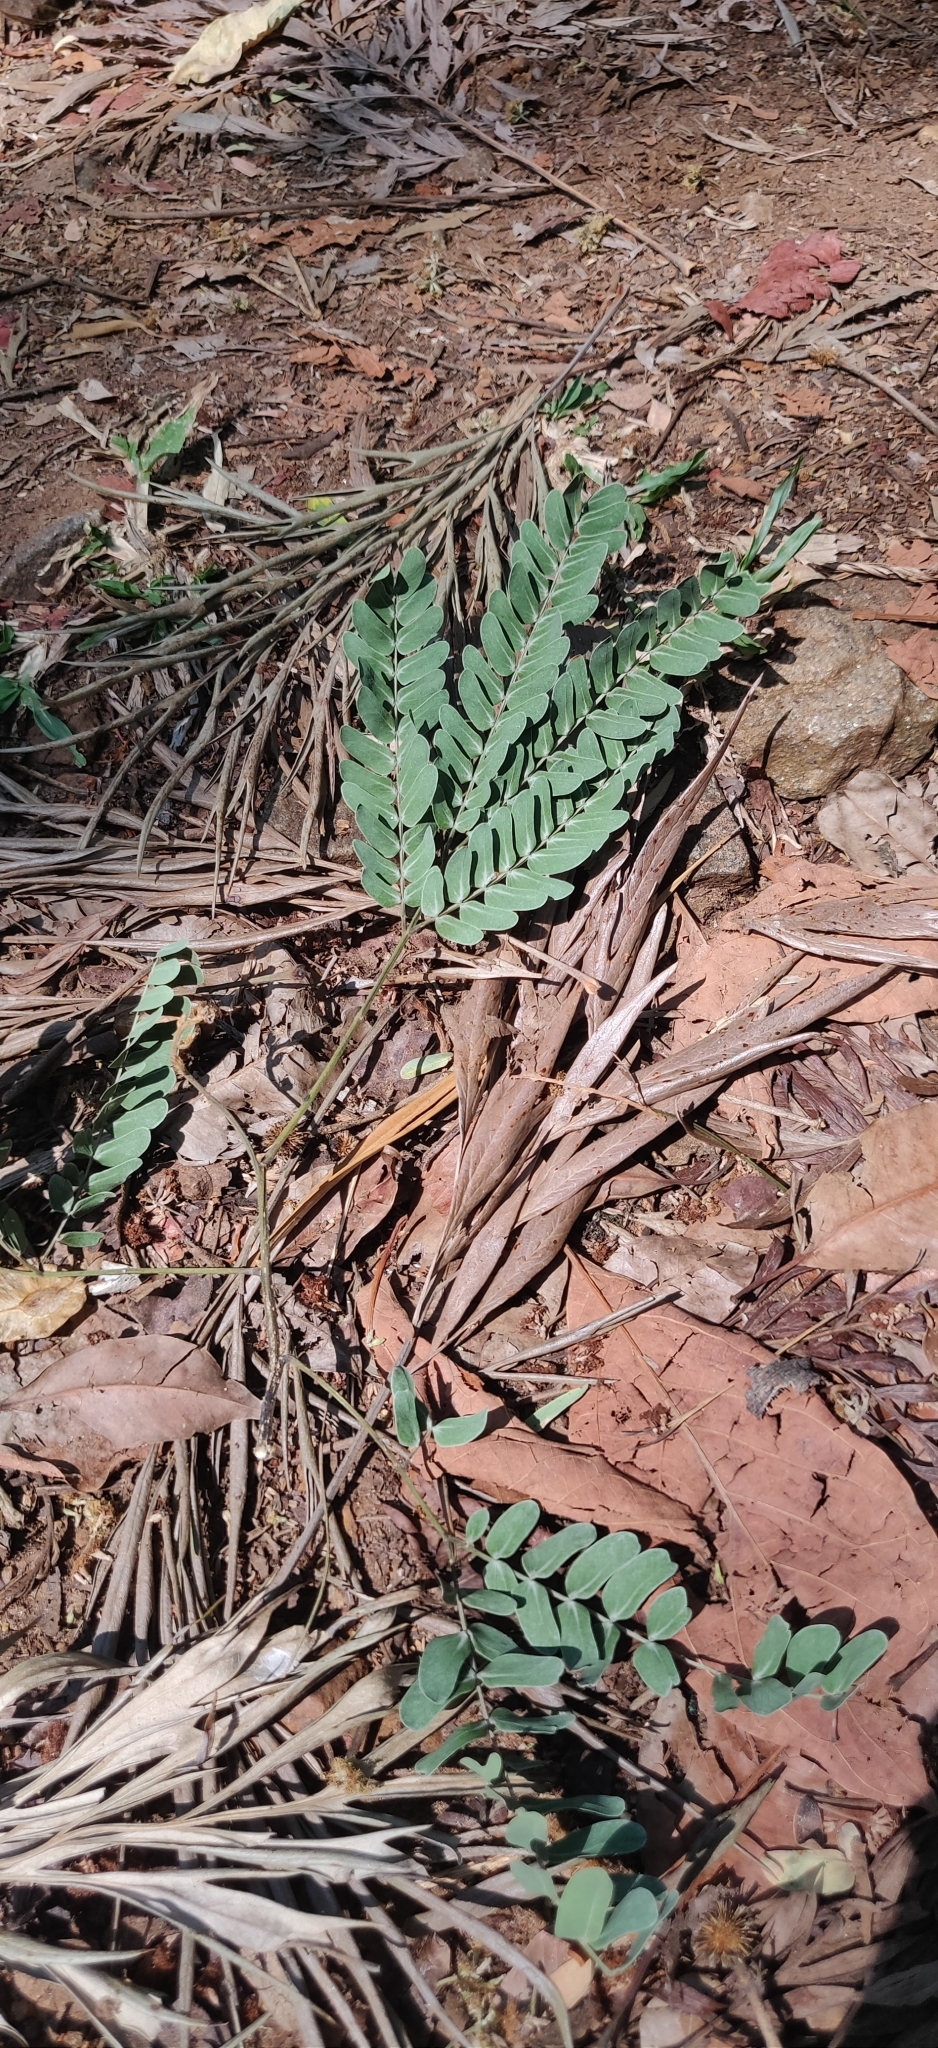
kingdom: Plantae
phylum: Tracheophyta
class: Magnoliopsida
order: Fabales
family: Fabaceae
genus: Albizia
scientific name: Albizia odoratissima
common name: Ceylon rosewood
